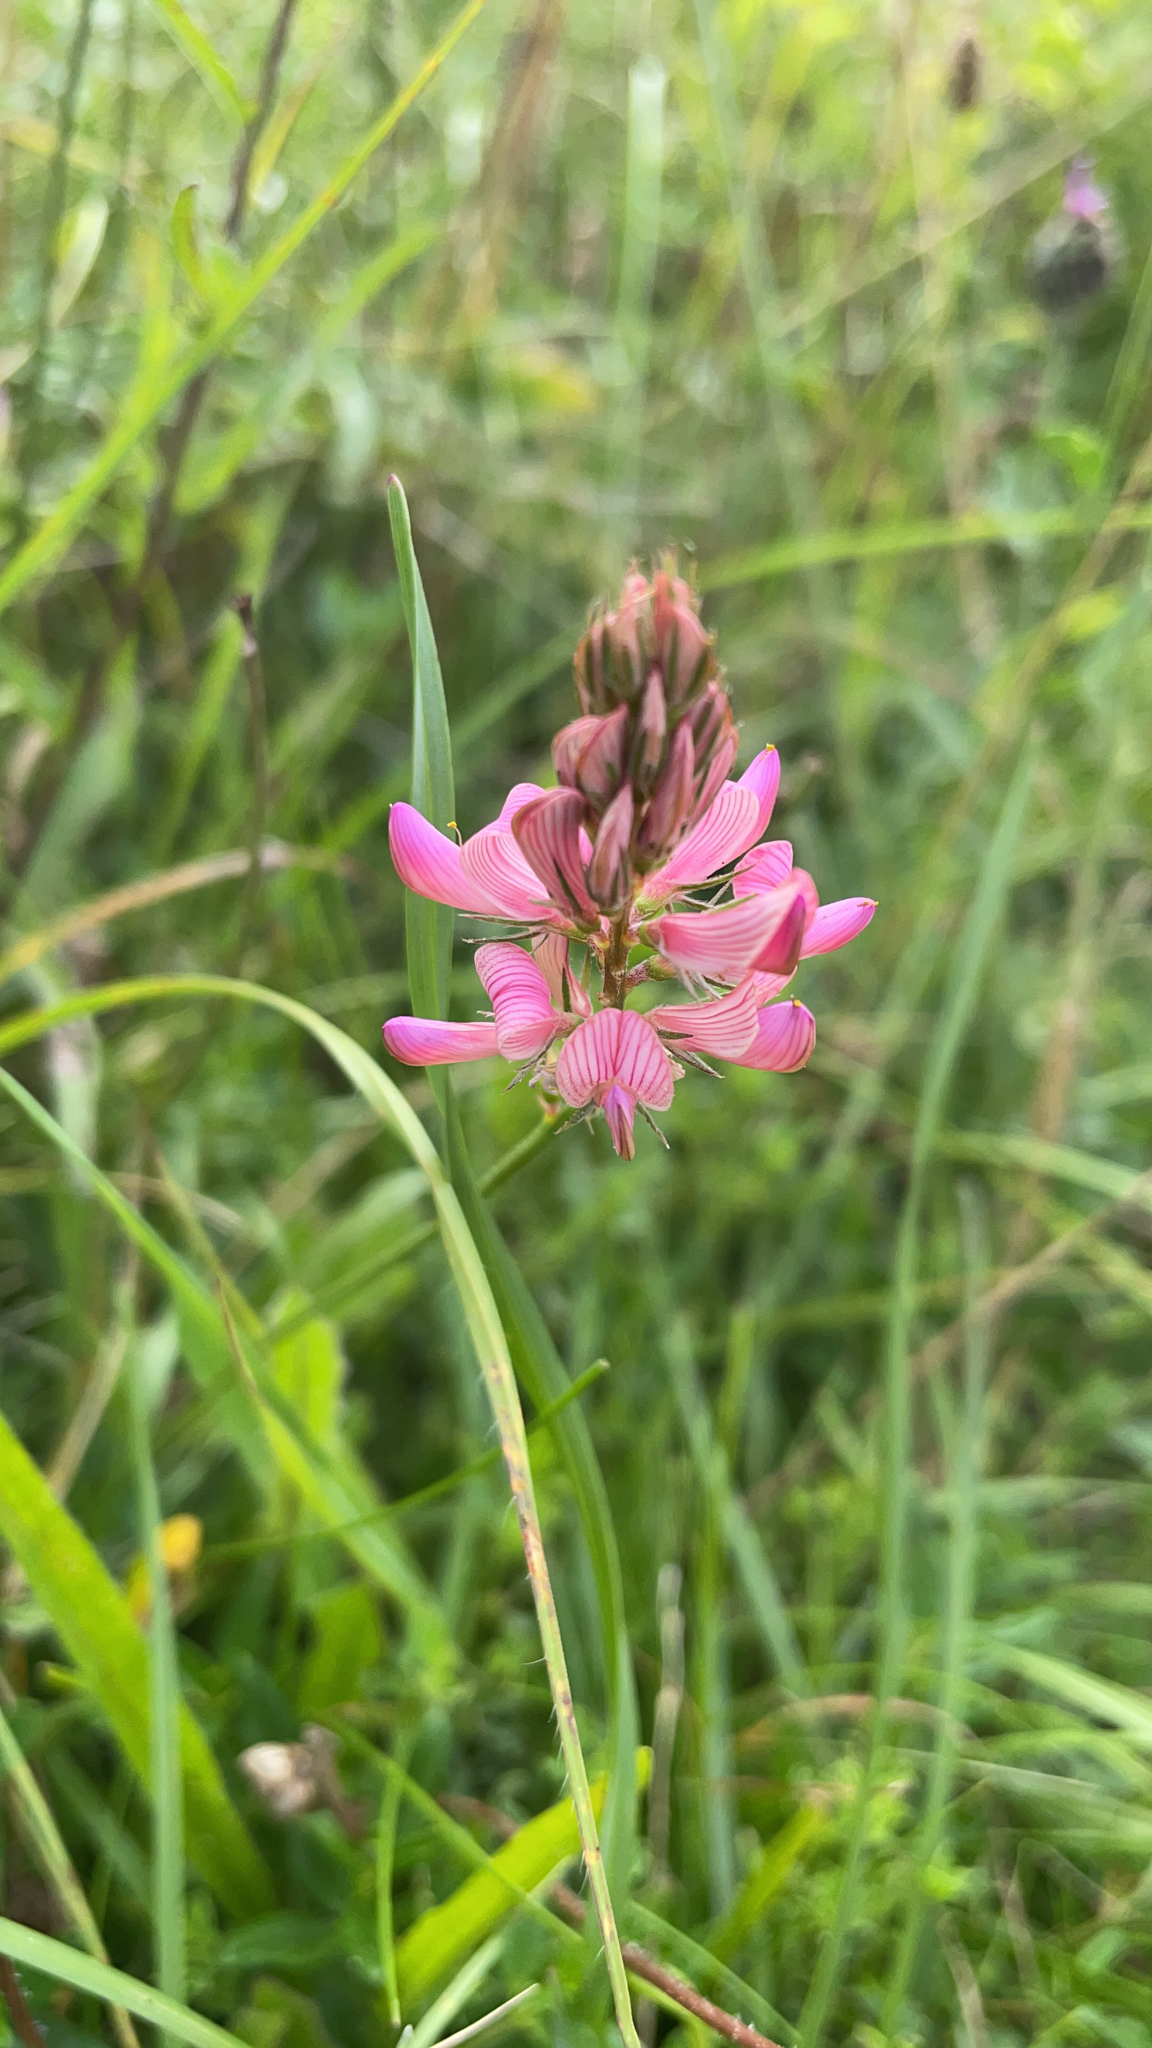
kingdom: Plantae
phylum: Tracheophyta
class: Magnoliopsida
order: Fabales
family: Fabaceae
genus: Onobrychis
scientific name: Onobrychis viciifolia
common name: Sainfoin
